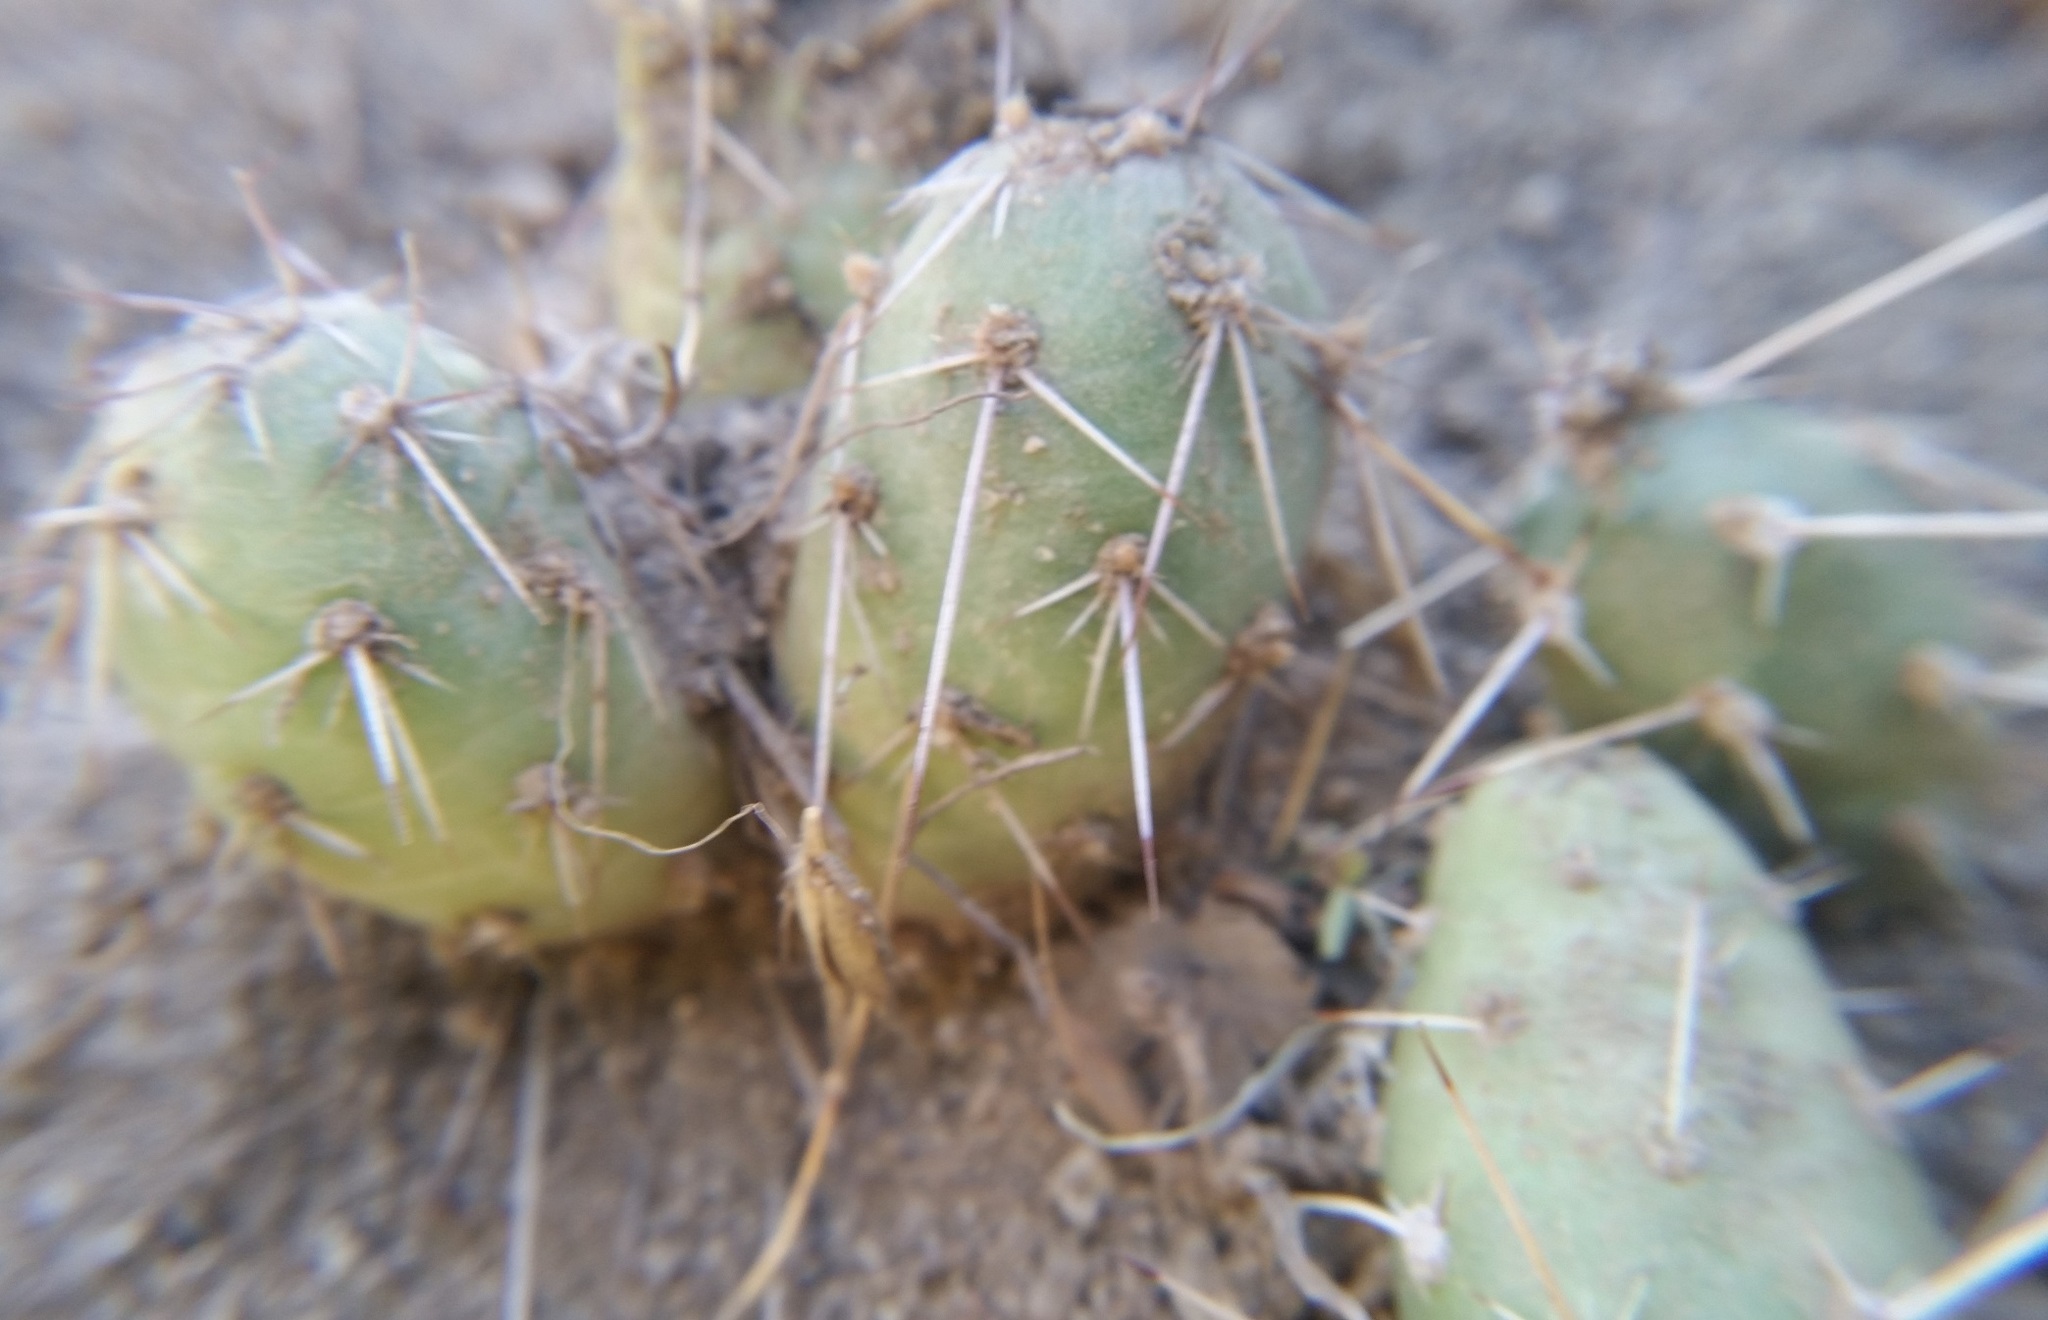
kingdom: Plantae
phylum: Tracheophyta
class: Magnoliopsida
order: Caryophyllales
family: Cactaceae
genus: Opuntia
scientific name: Opuntia fragilis
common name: Brittle cactus
